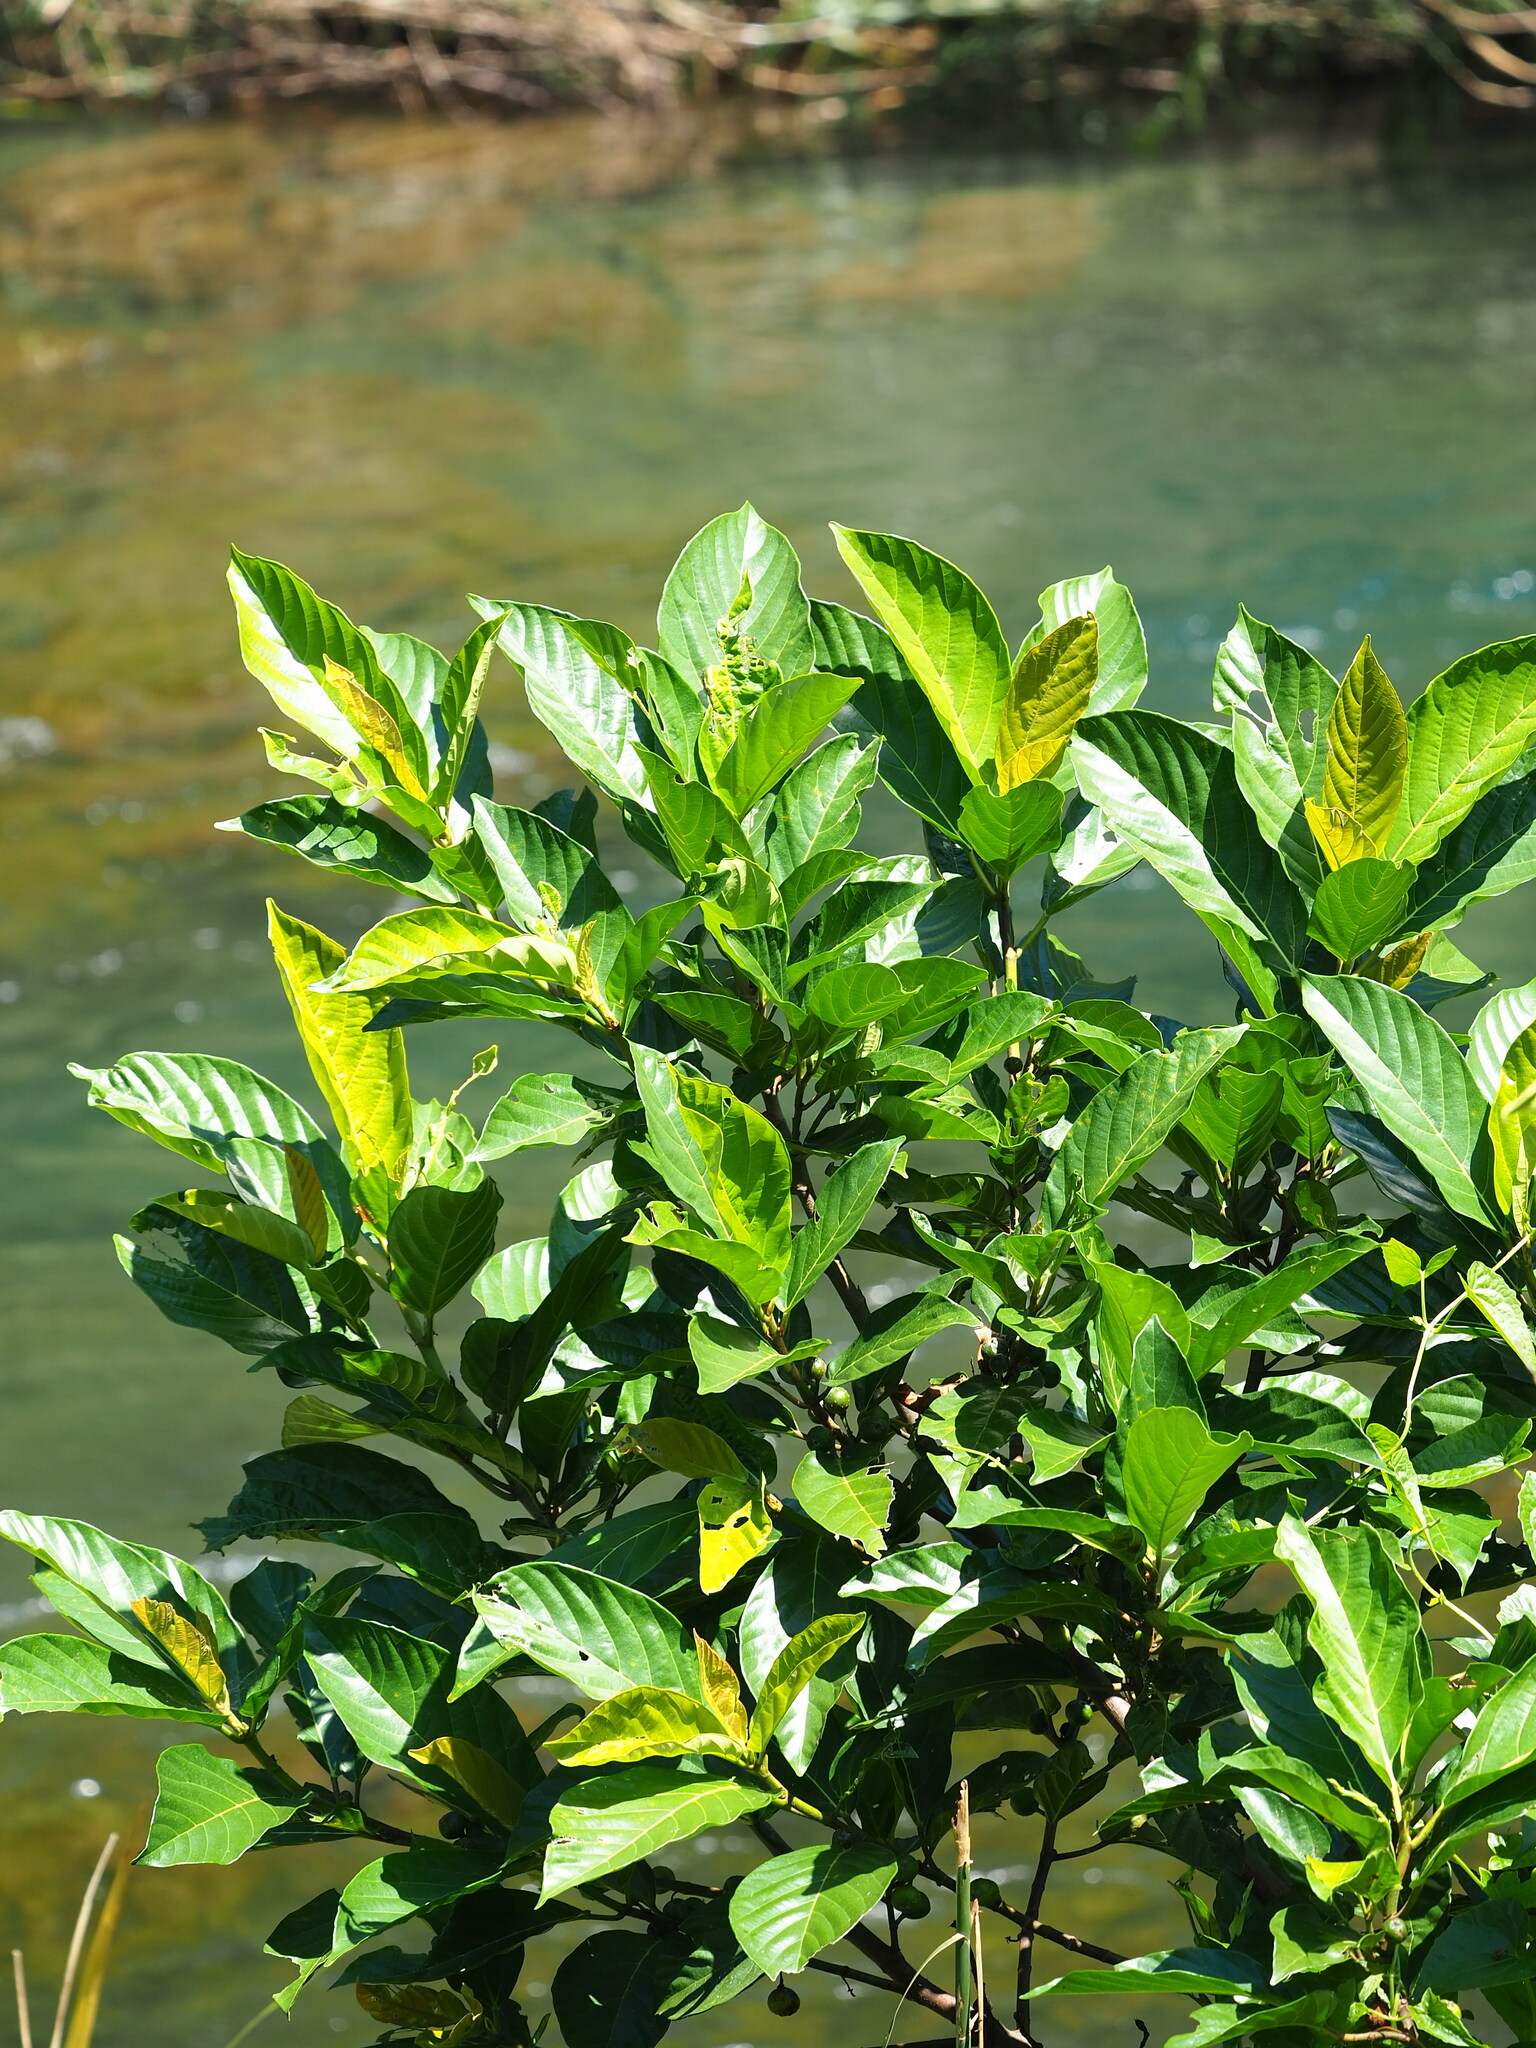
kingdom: Plantae
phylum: Tracheophyta
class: Magnoliopsida
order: Rosales
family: Moraceae
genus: Ficus
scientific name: Ficus benguetensis
